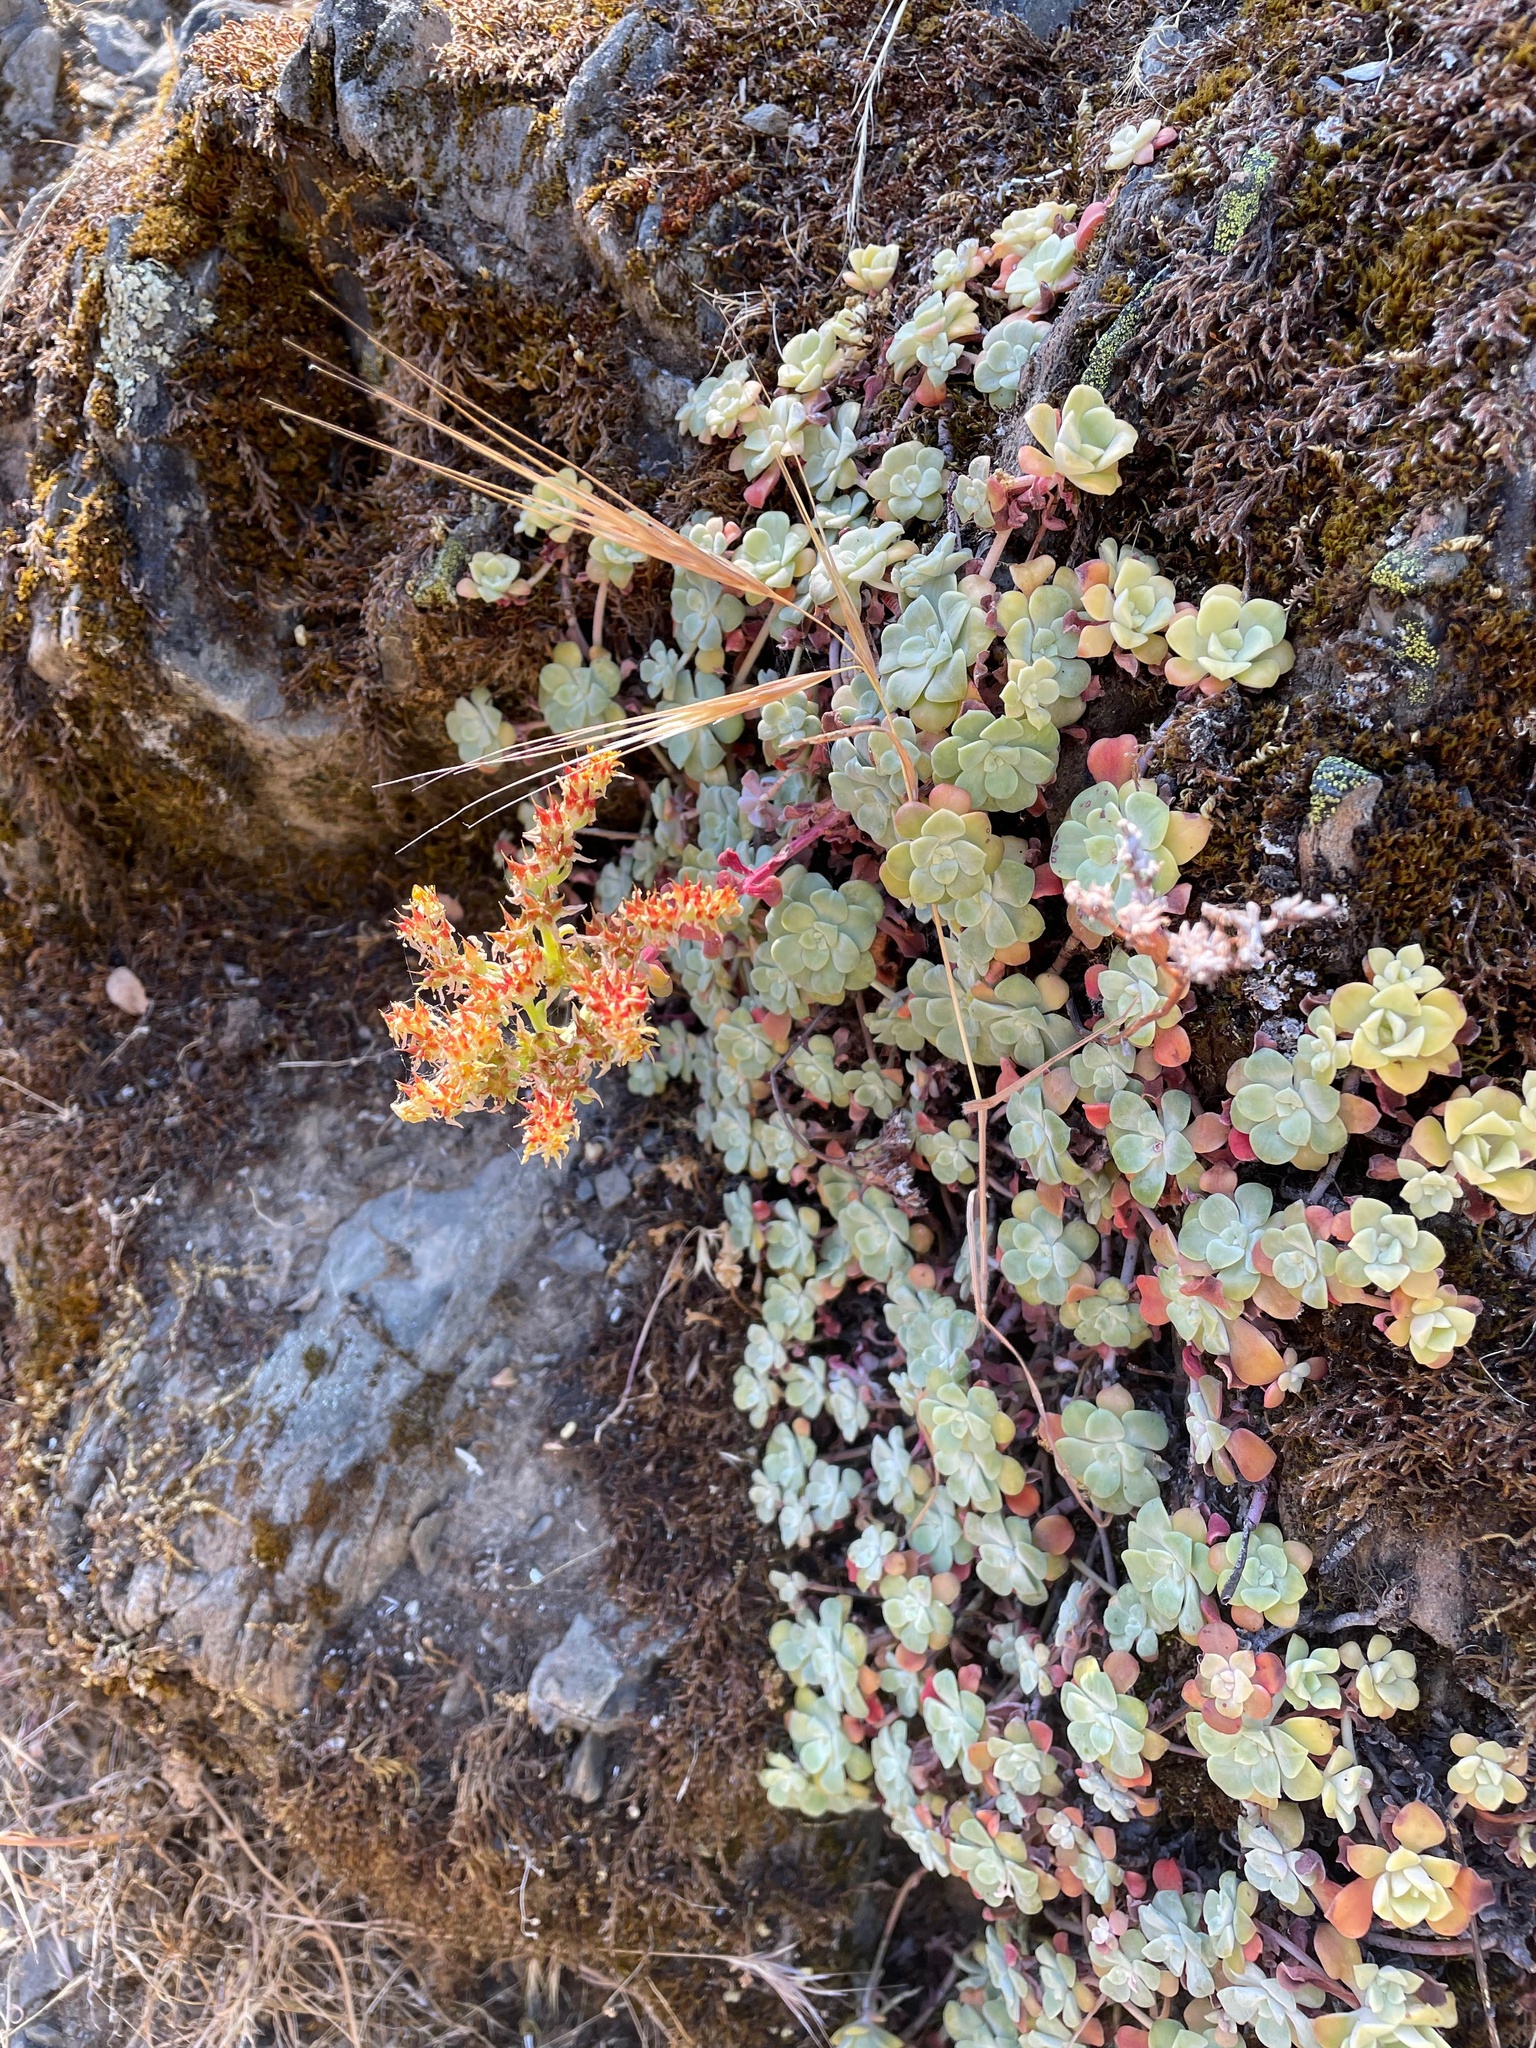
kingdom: Plantae
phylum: Tracheophyta
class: Magnoliopsida
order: Saxifragales
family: Crassulaceae
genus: Sedum
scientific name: Sedum spathulifolium
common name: Colorado stonecrop
